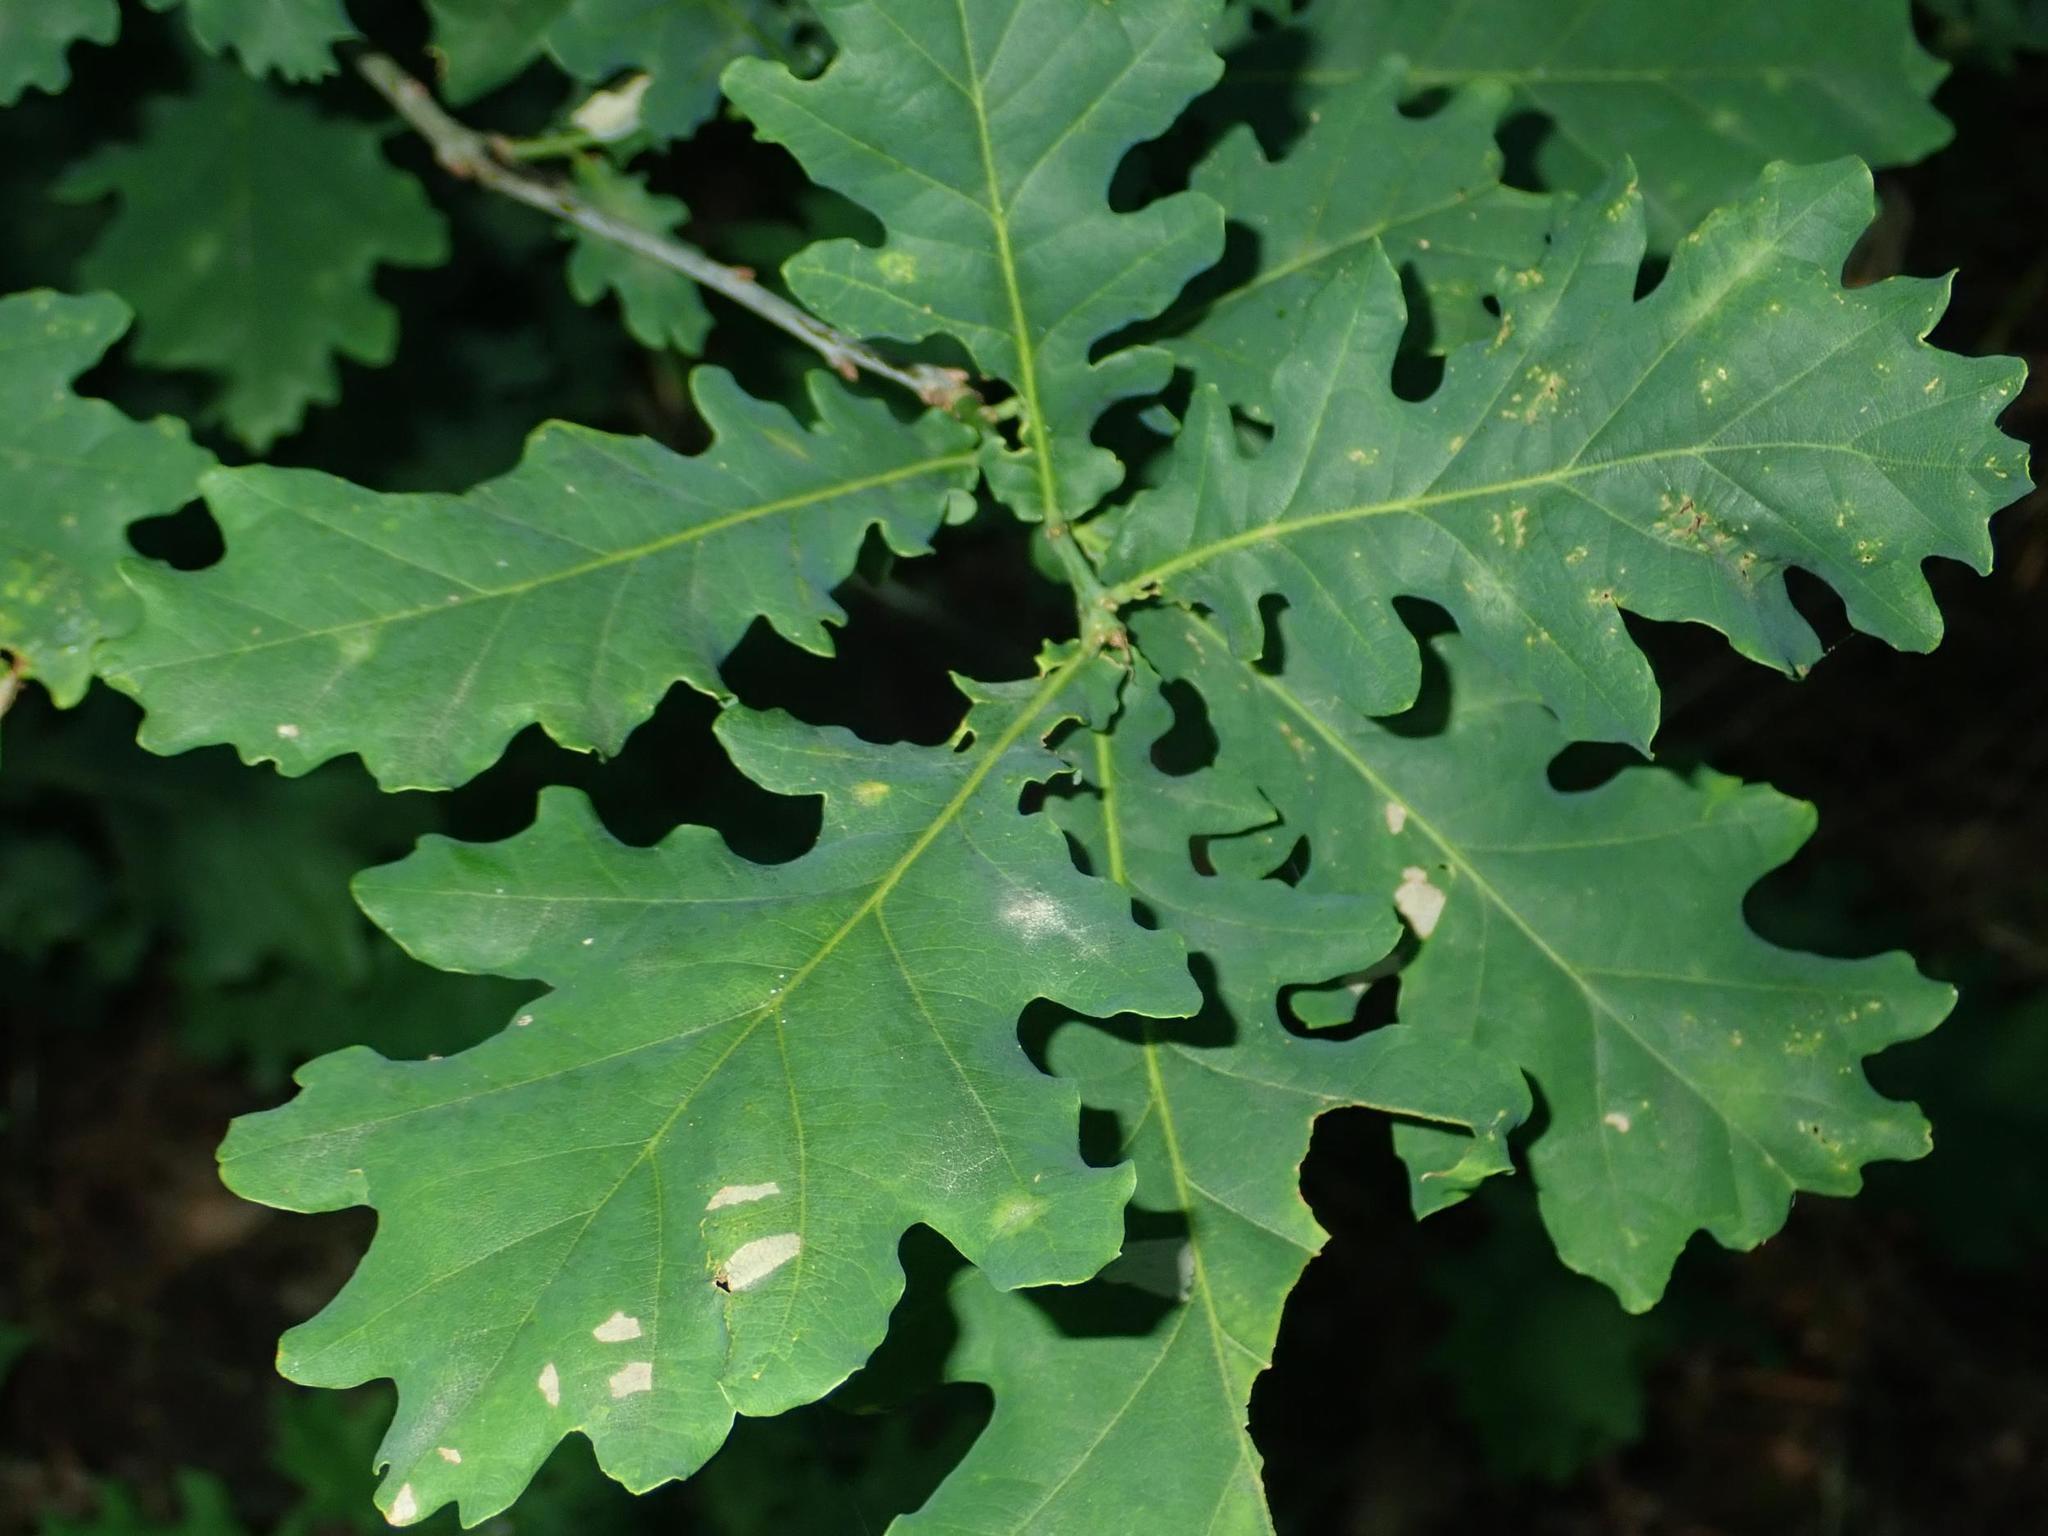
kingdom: Plantae
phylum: Tracheophyta
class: Magnoliopsida
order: Fagales
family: Fagaceae
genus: Quercus
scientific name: Quercus robur
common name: Pedunculate oak
